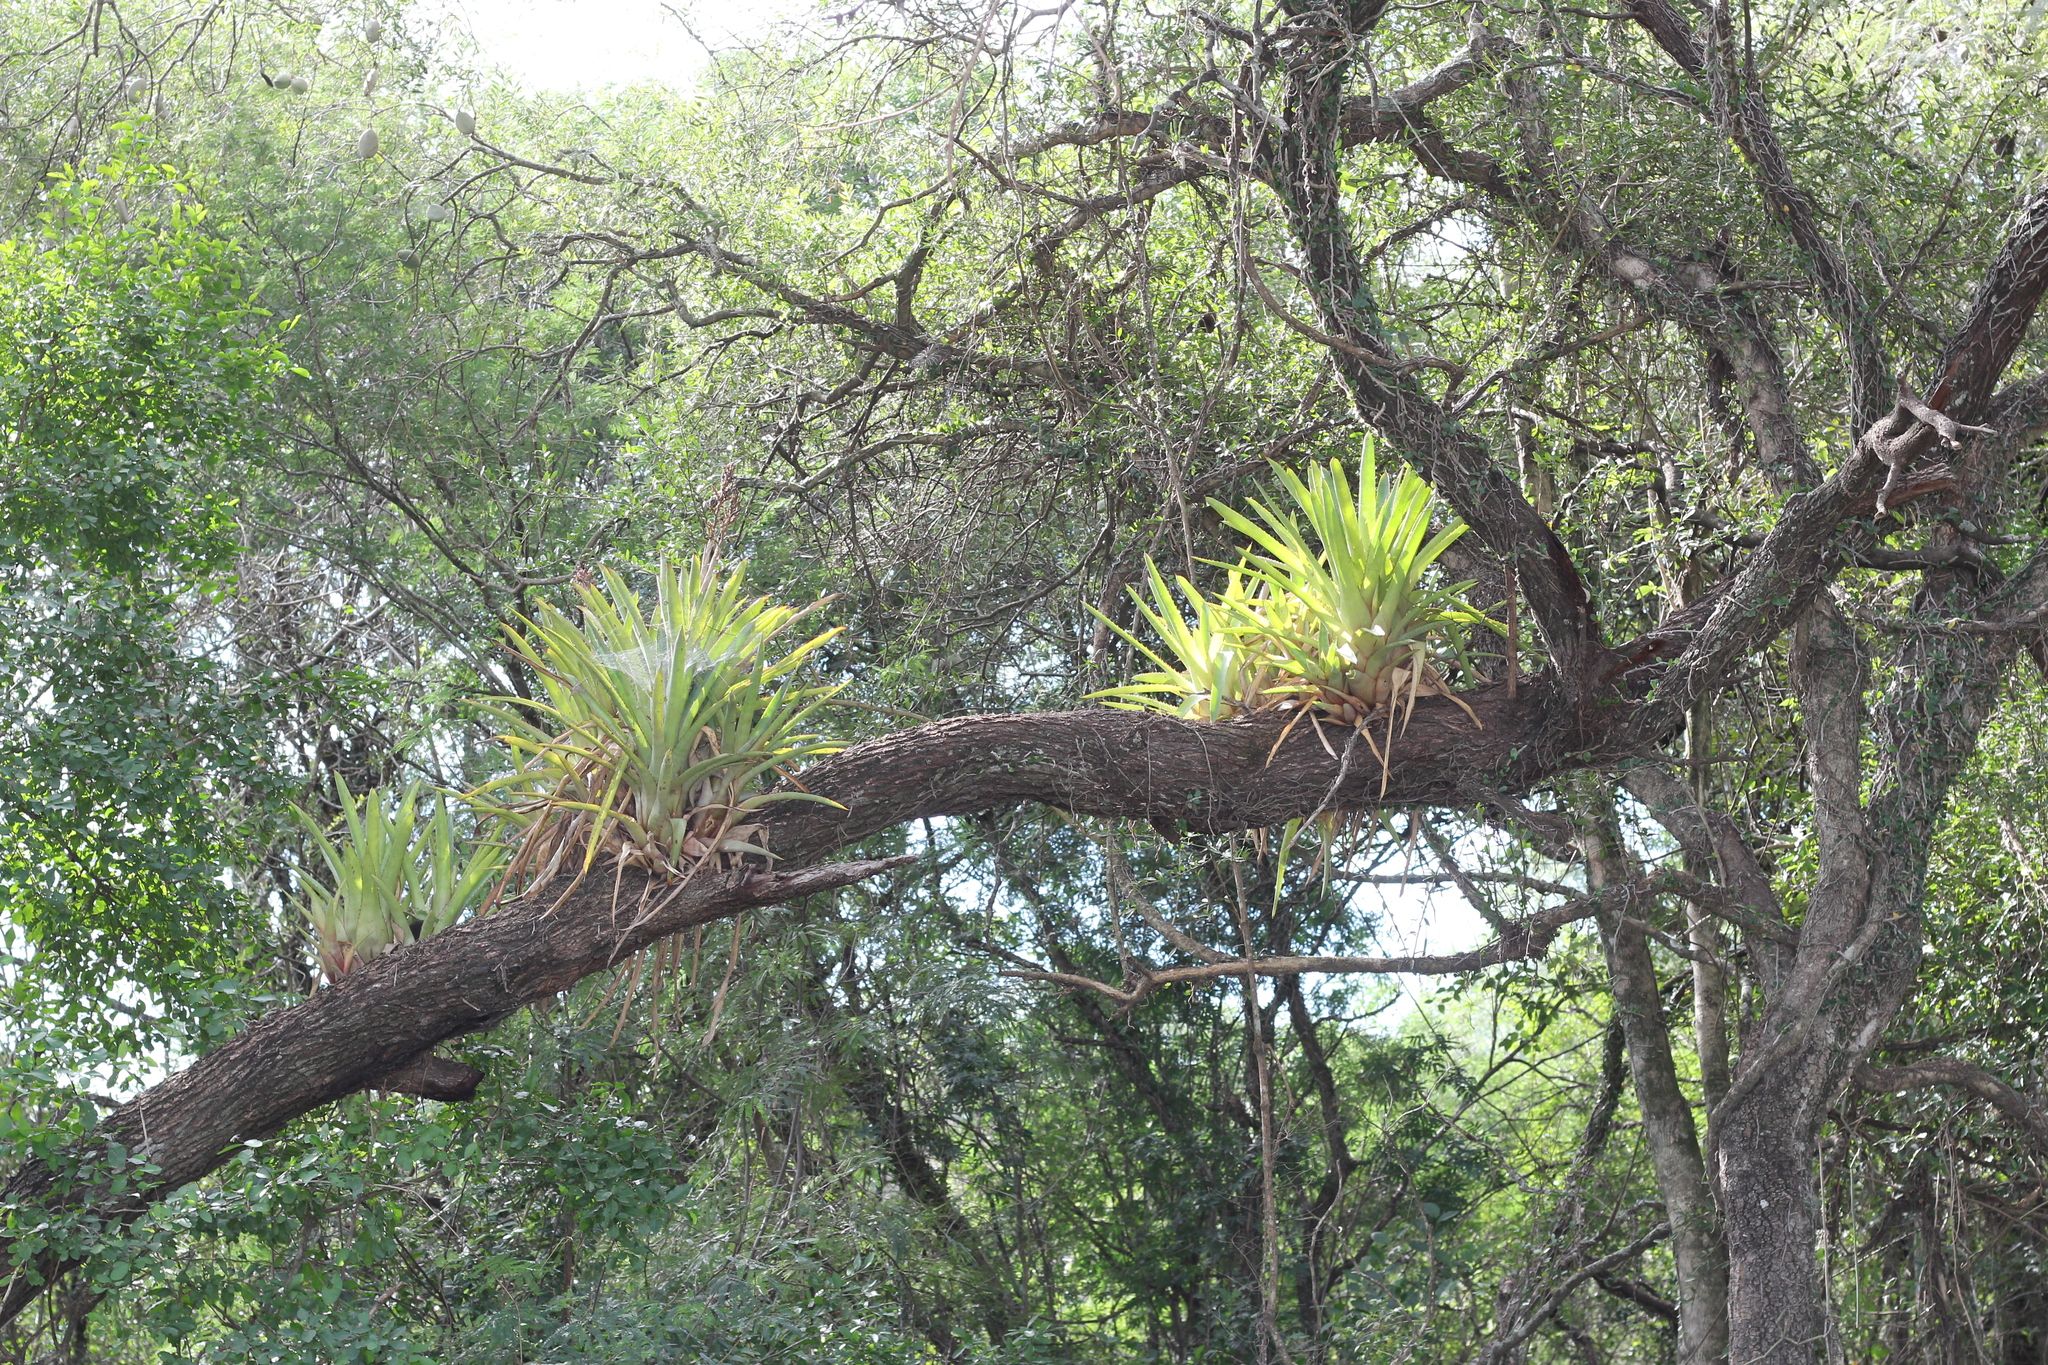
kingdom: Plantae
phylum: Tracheophyta
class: Liliopsida
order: Poales
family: Bromeliaceae
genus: Aechmea
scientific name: Aechmea distichantha
